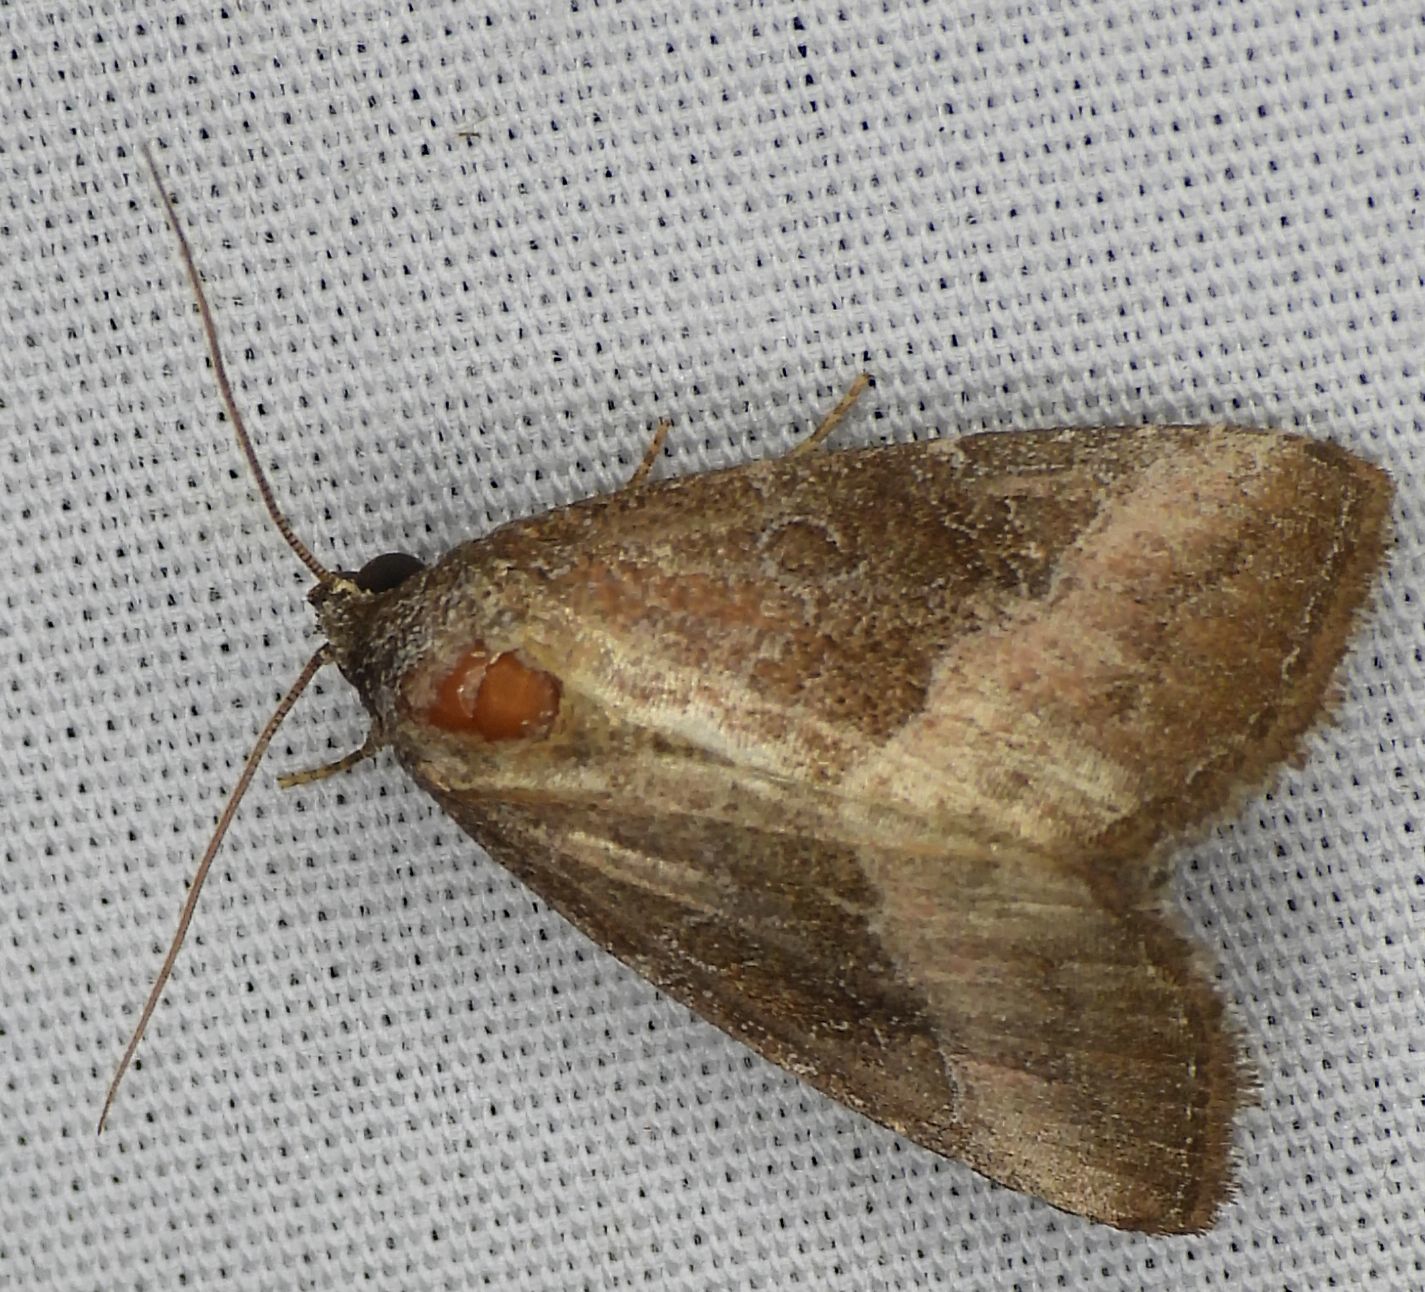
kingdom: Animalia
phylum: Arthropoda
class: Insecta
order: Lepidoptera
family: Noctuidae
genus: Ogdoconta
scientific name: Ogdoconta cinereola
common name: Common pinkband
